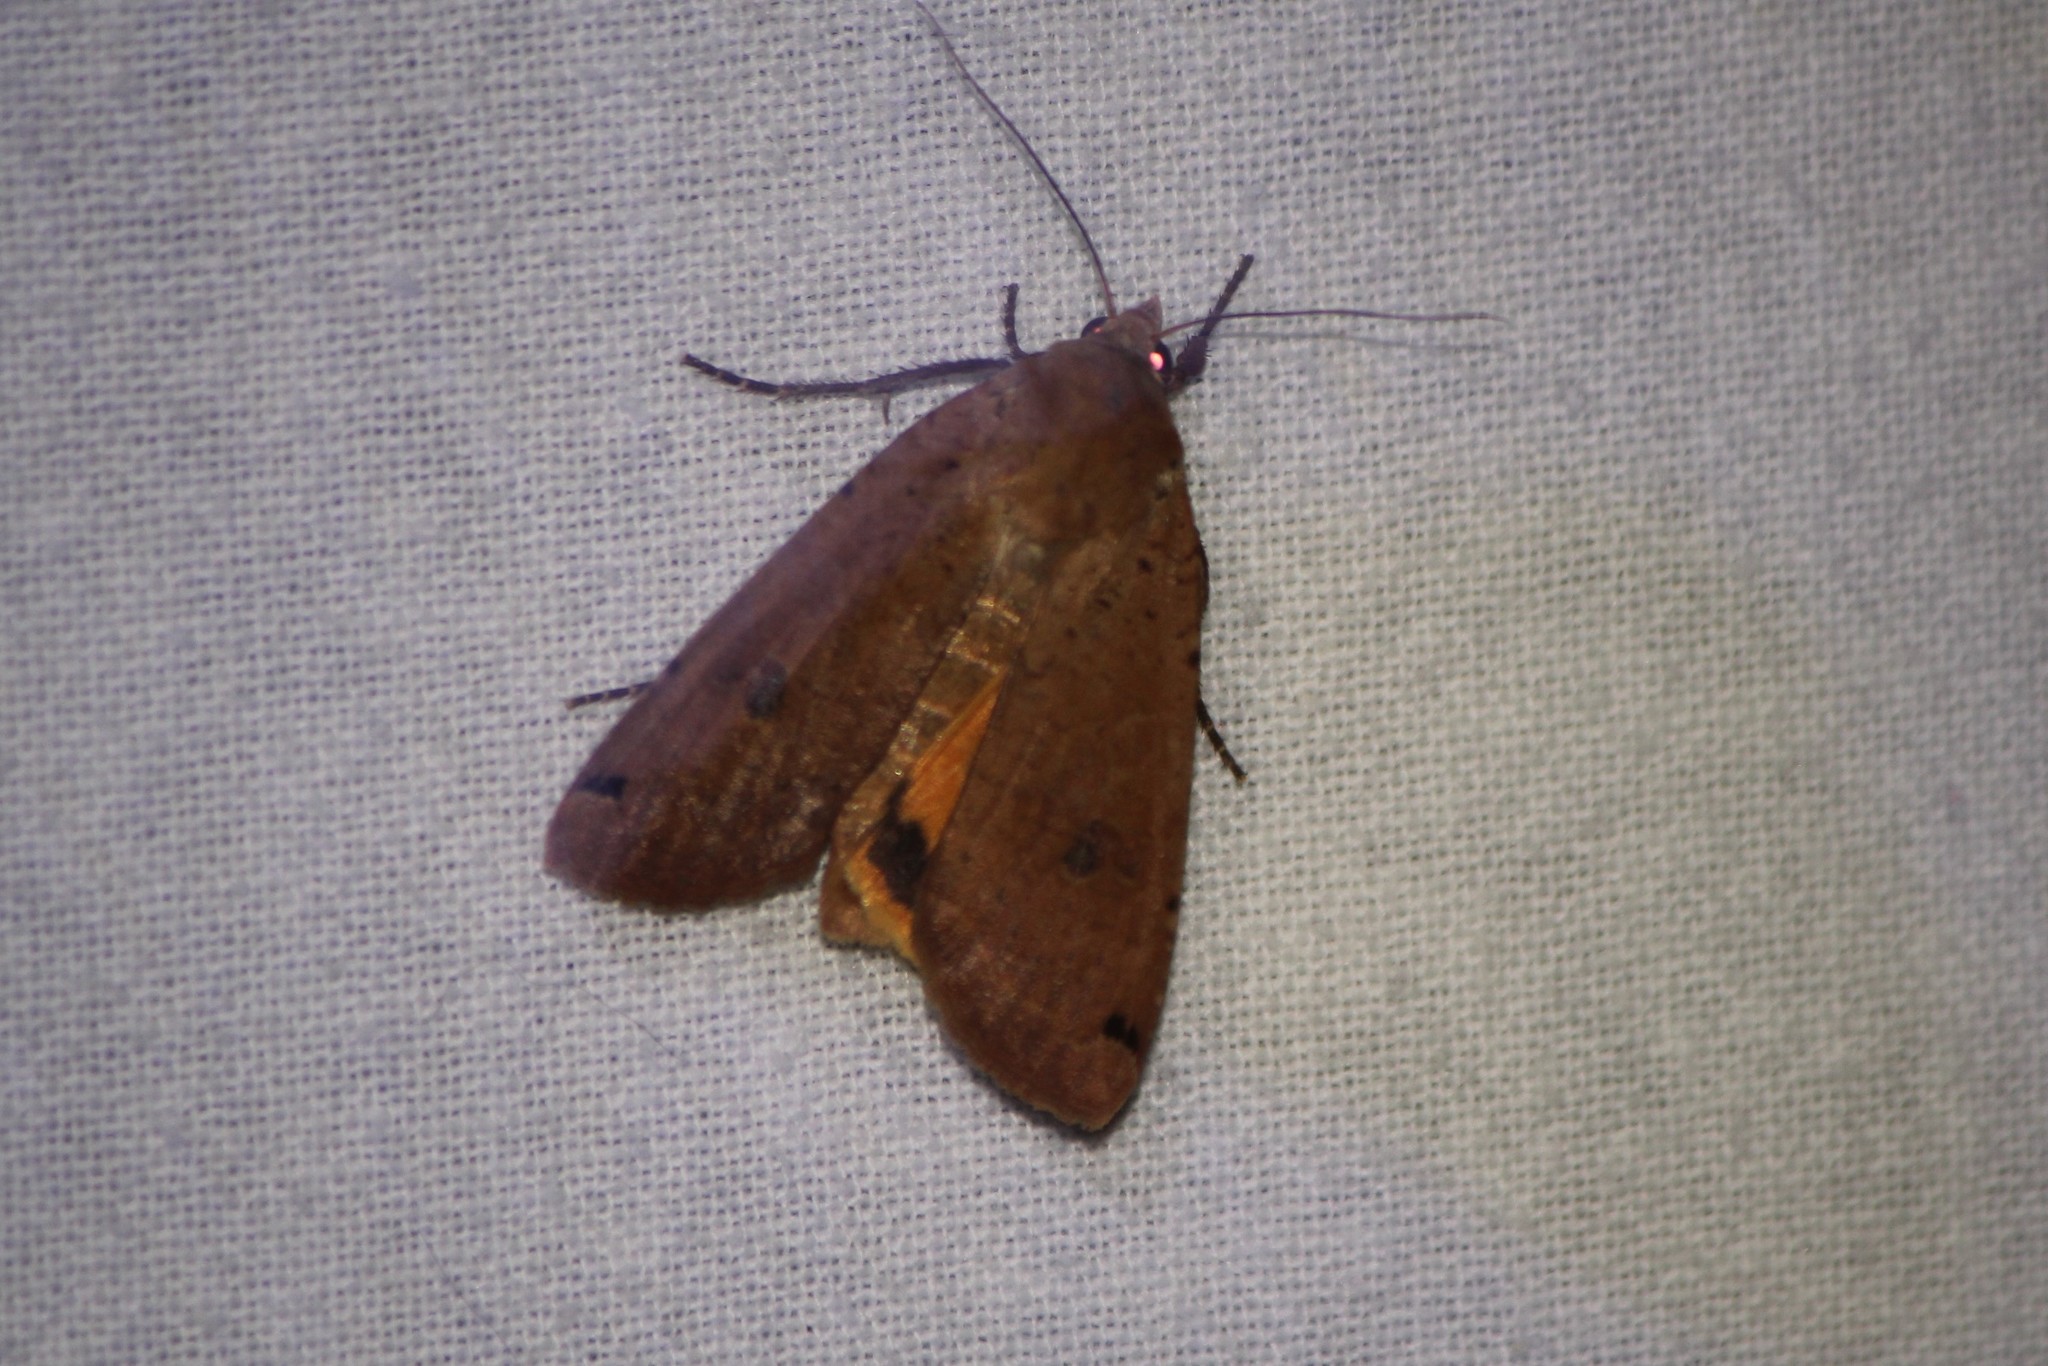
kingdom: Animalia
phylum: Arthropoda
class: Insecta
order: Lepidoptera
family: Noctuidae
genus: Noctua
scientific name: Noctua pronuba
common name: Large yellow underwing
